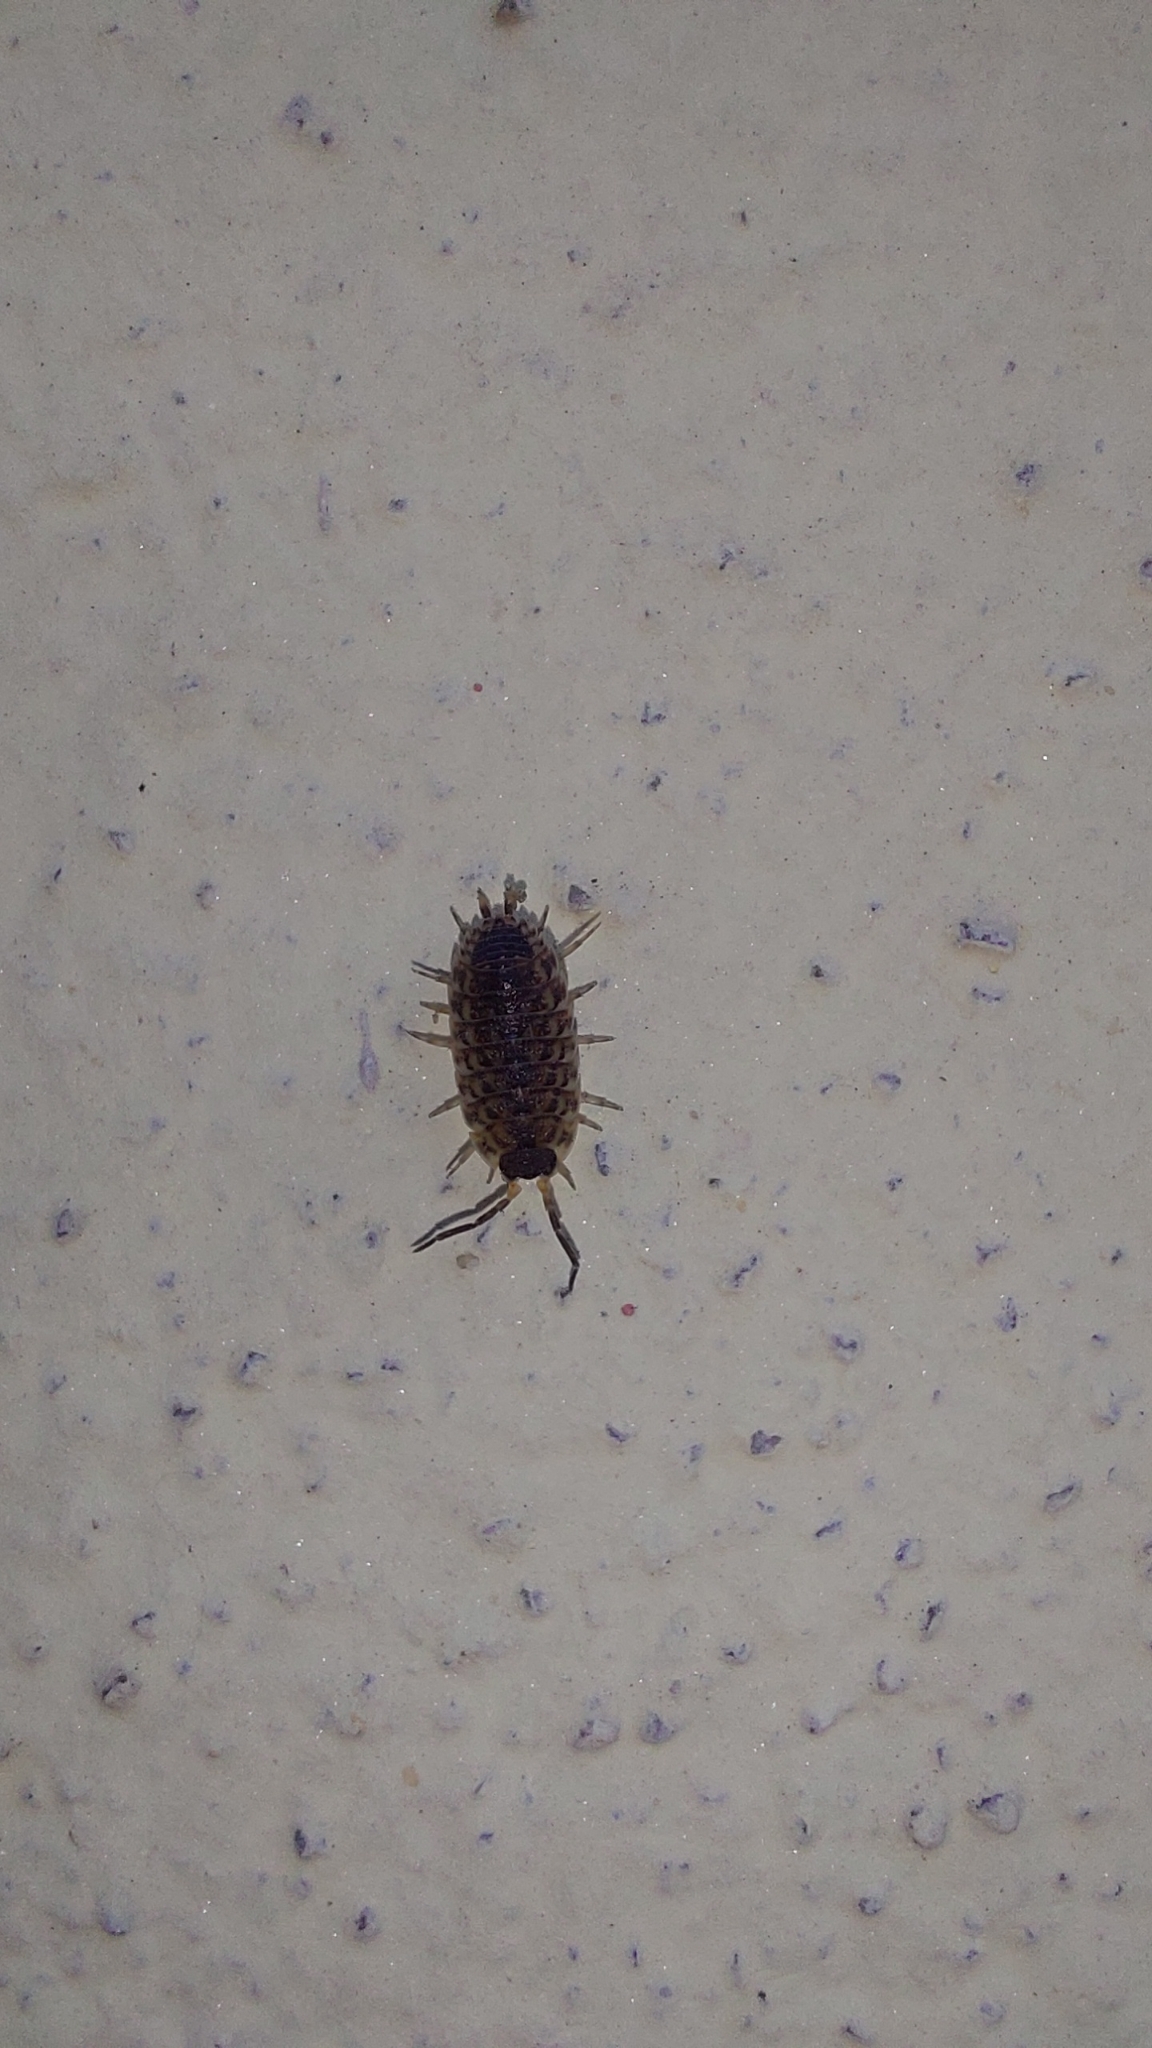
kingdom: Animalia
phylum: Arthropoda
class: Malacostraca
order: Isopoda
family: Porcellionidae
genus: Porcellio
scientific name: Porcellio spinicornis
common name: Painted woodlouse
